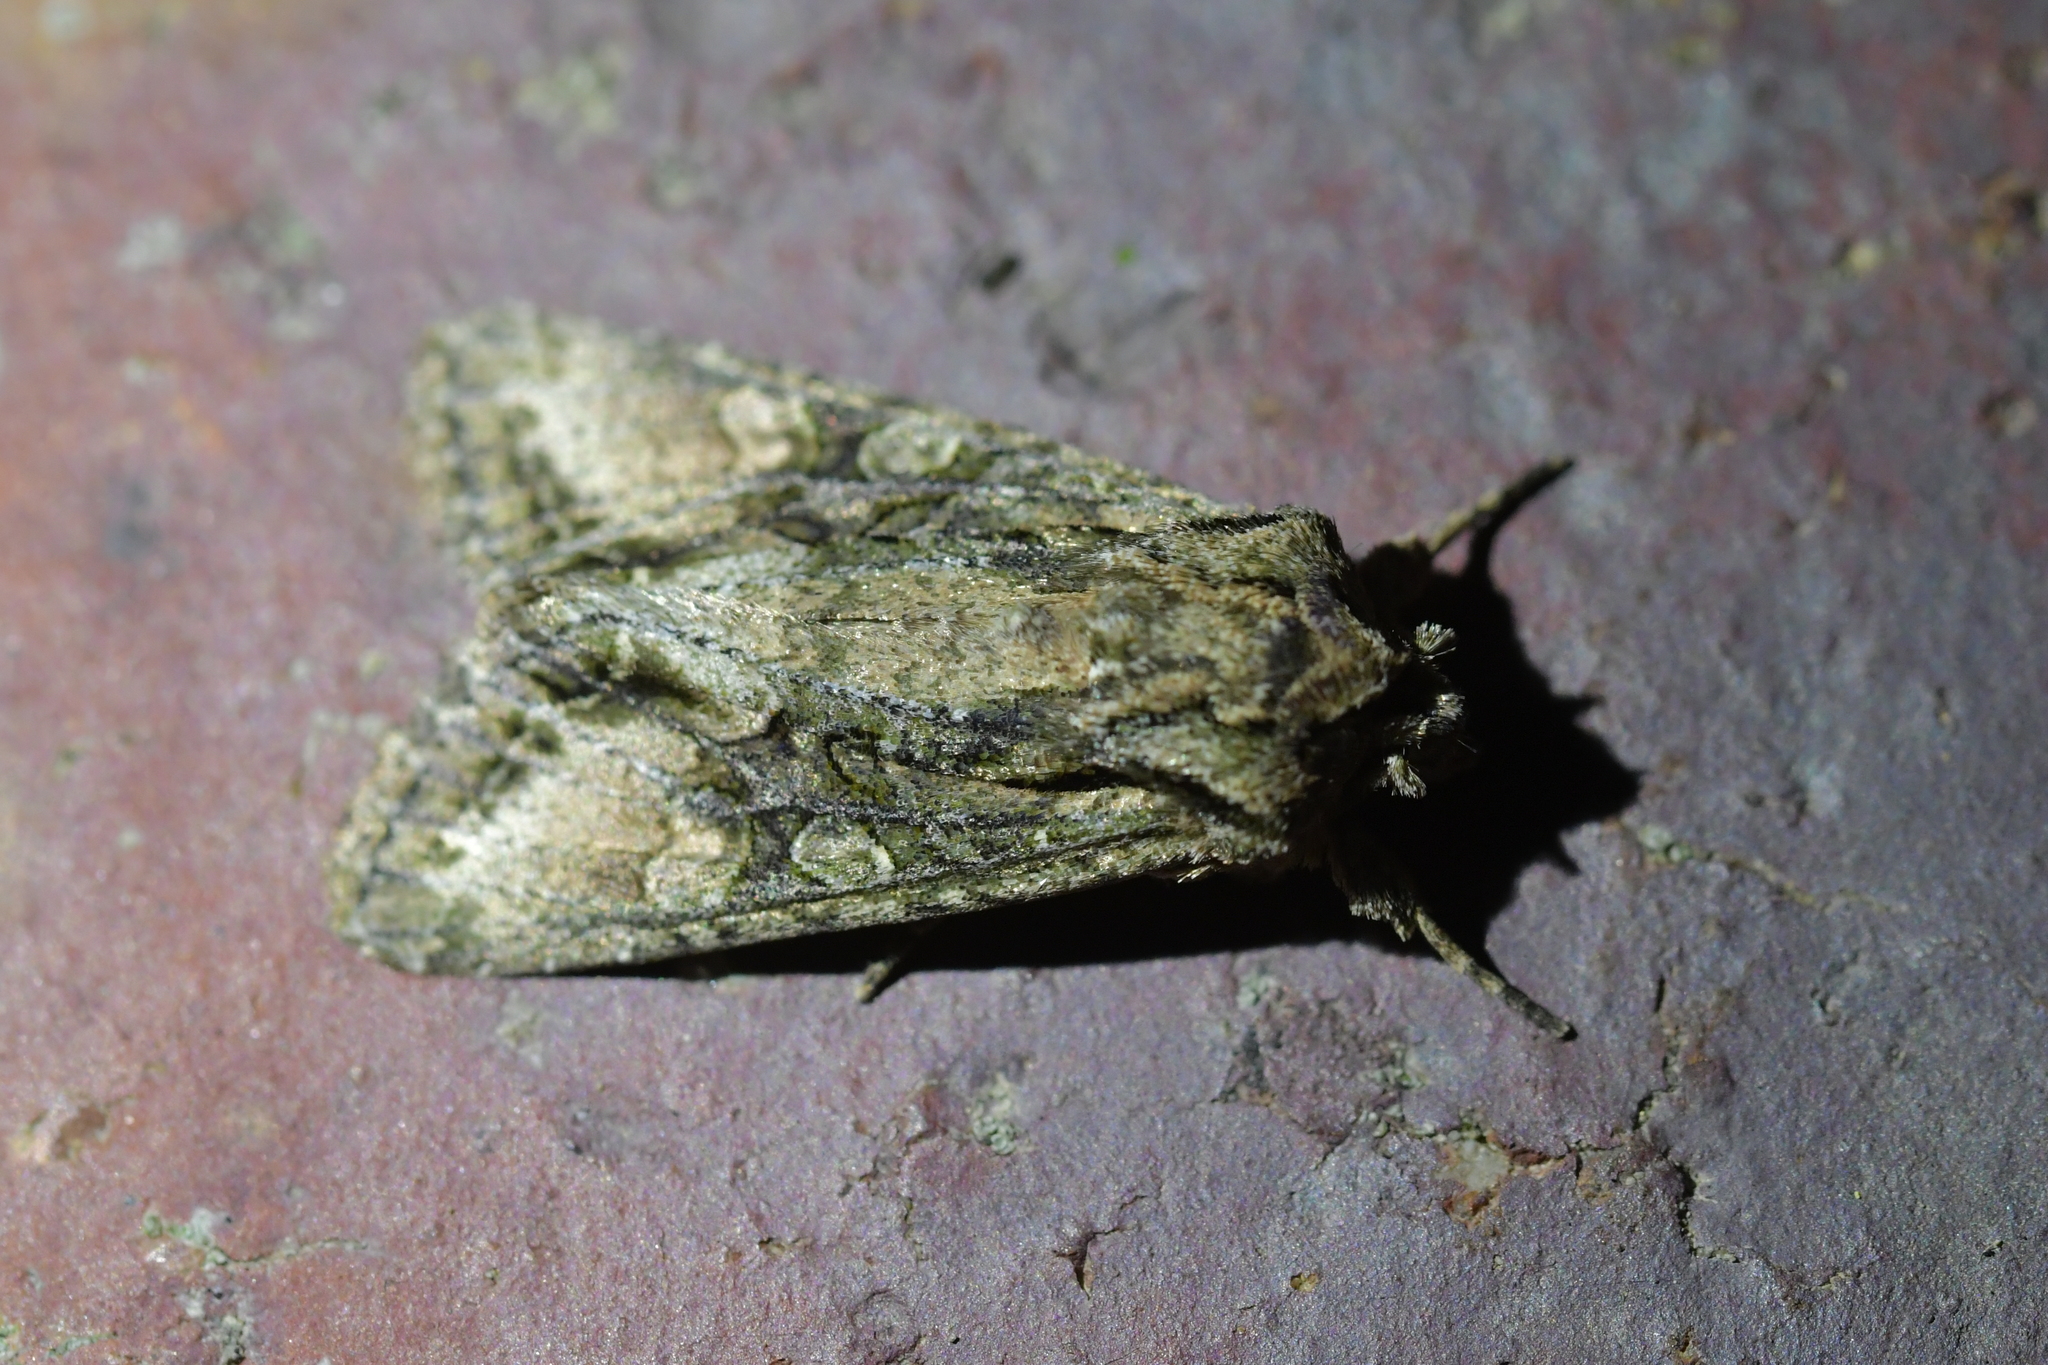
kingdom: Animalia
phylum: Arthropoda
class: Insecta
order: Lepidoptera
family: Noctuidae
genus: Ichneutica
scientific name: Ichneutica mutans
